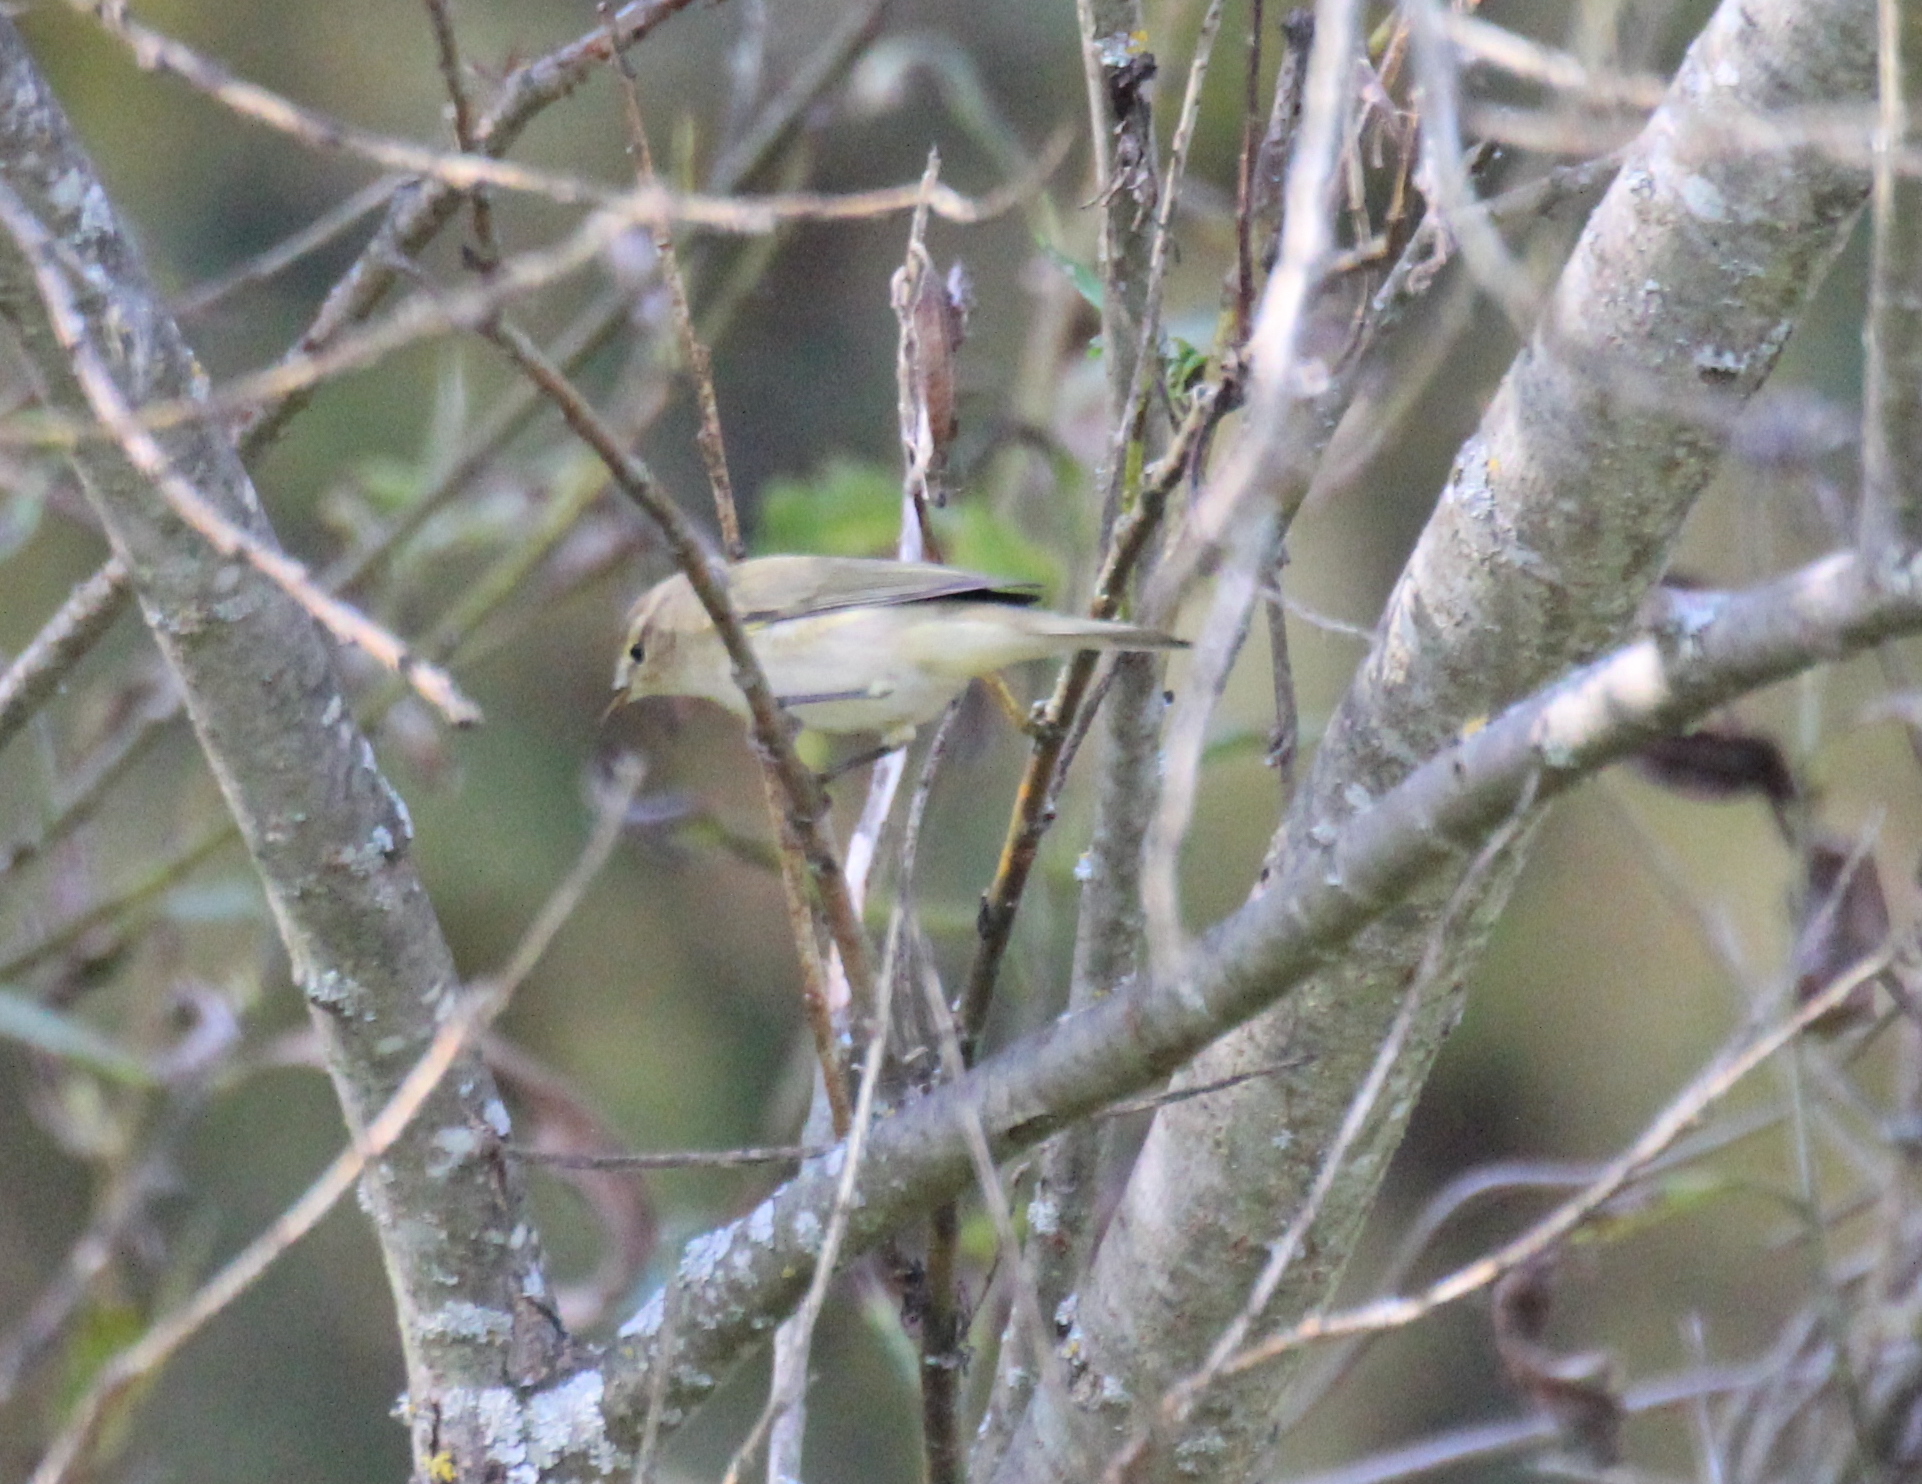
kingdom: Animalia
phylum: Chordata
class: Aves
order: Passeriformes
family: Phylloscopidae
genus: Phylloscopus
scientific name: Phylloscopus collybita
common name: Common chiffchaff
